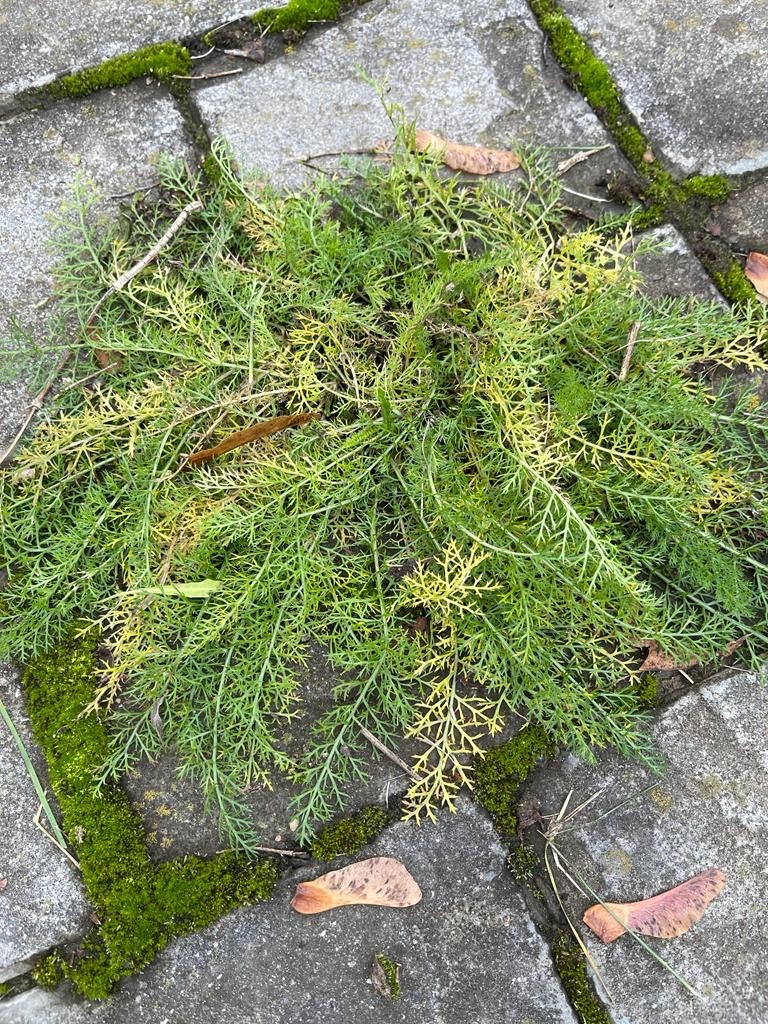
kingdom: Plantae
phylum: Tracheophyta
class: Magnoliopsida
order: Asterales
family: Asteraceae
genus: Achillea
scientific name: Achillea millefolium
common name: Yarrow
